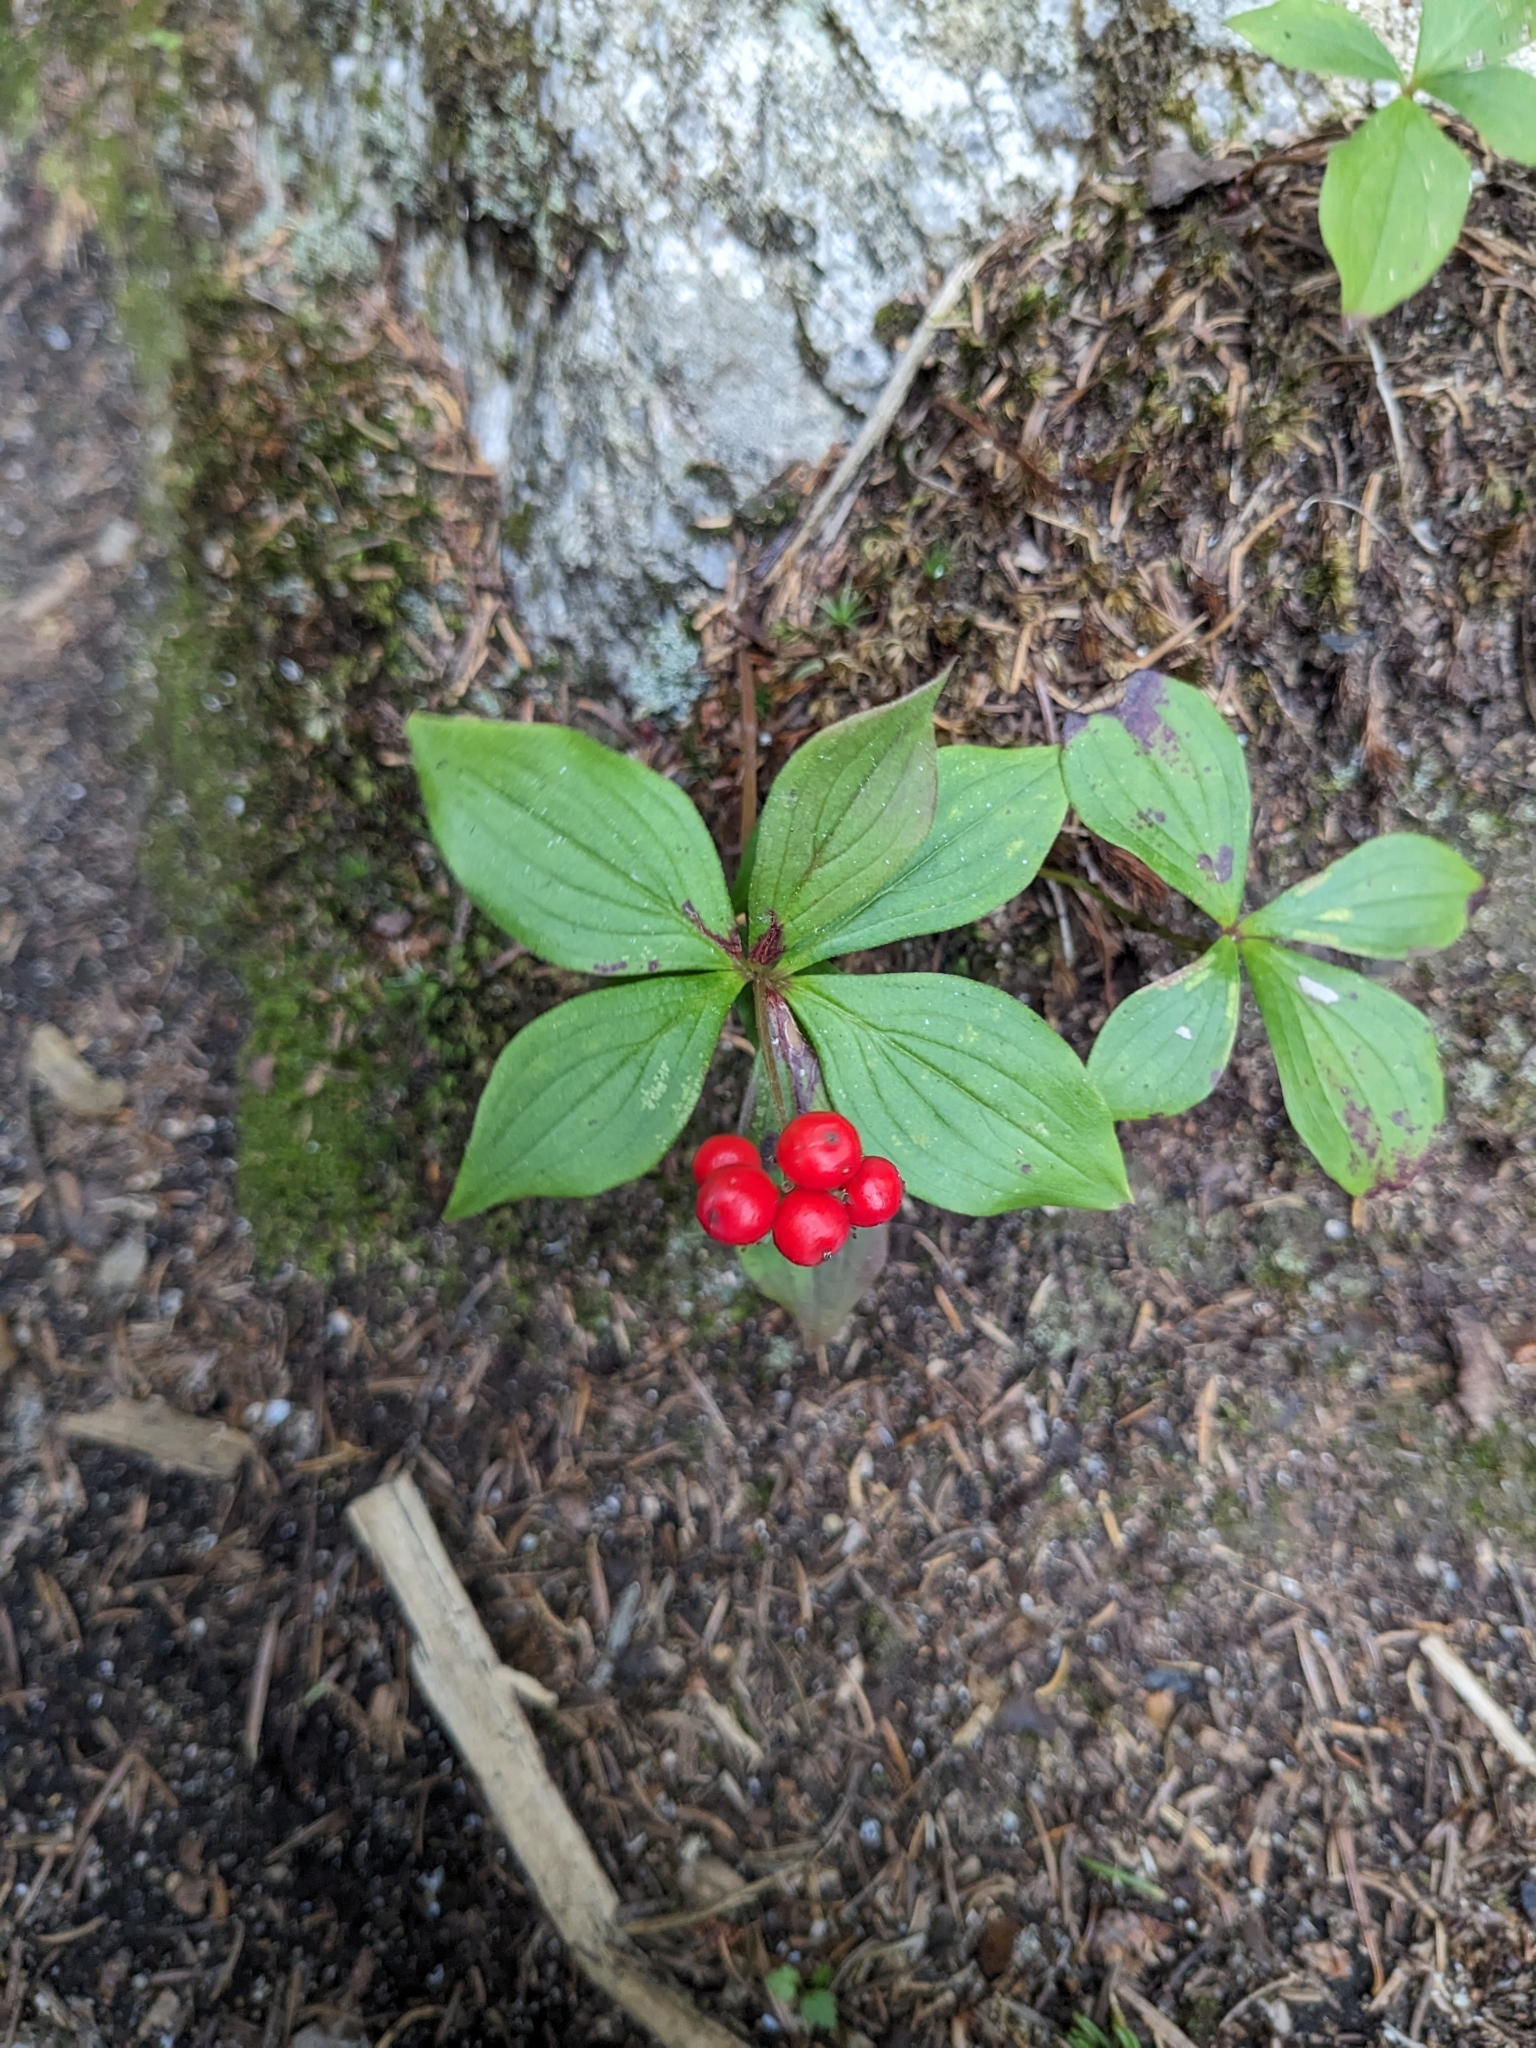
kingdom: Plantae
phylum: Tracheophyta
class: Magnoliopsida
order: Cornales
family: Cornaceae
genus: Cornus
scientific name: Cornus canadensis
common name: Creeping dogwood
